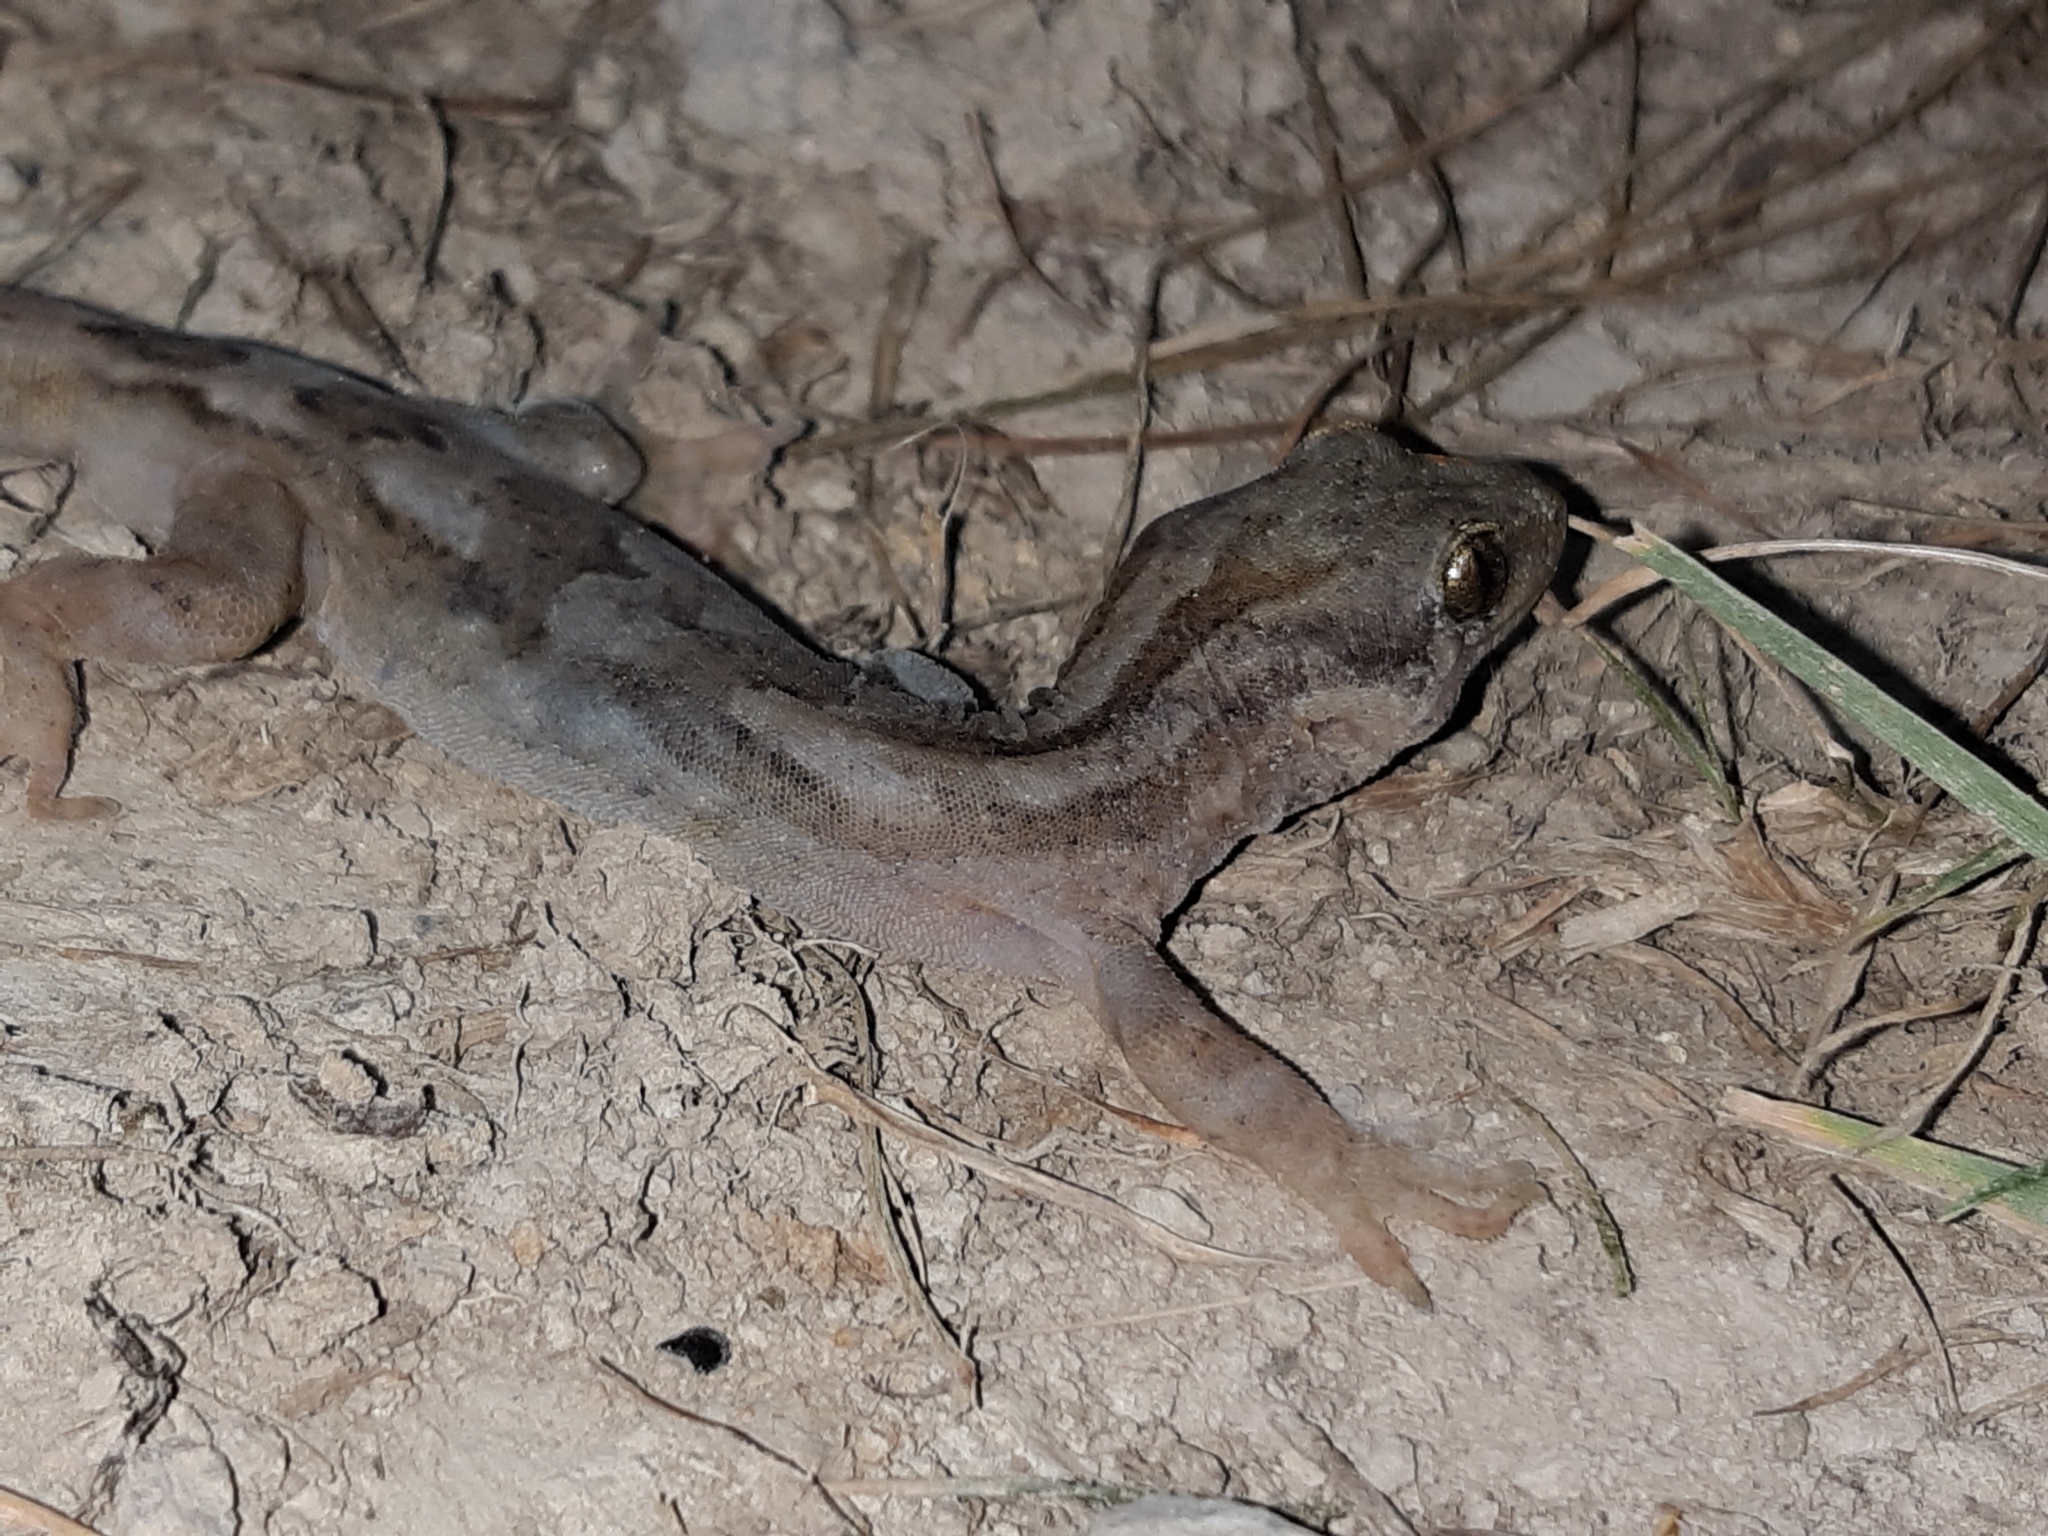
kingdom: Animalia
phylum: Chordata
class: Squamata
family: Diplodactylidae
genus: Woodworthia
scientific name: Woodworthia maculata
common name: Raukawa gecko
